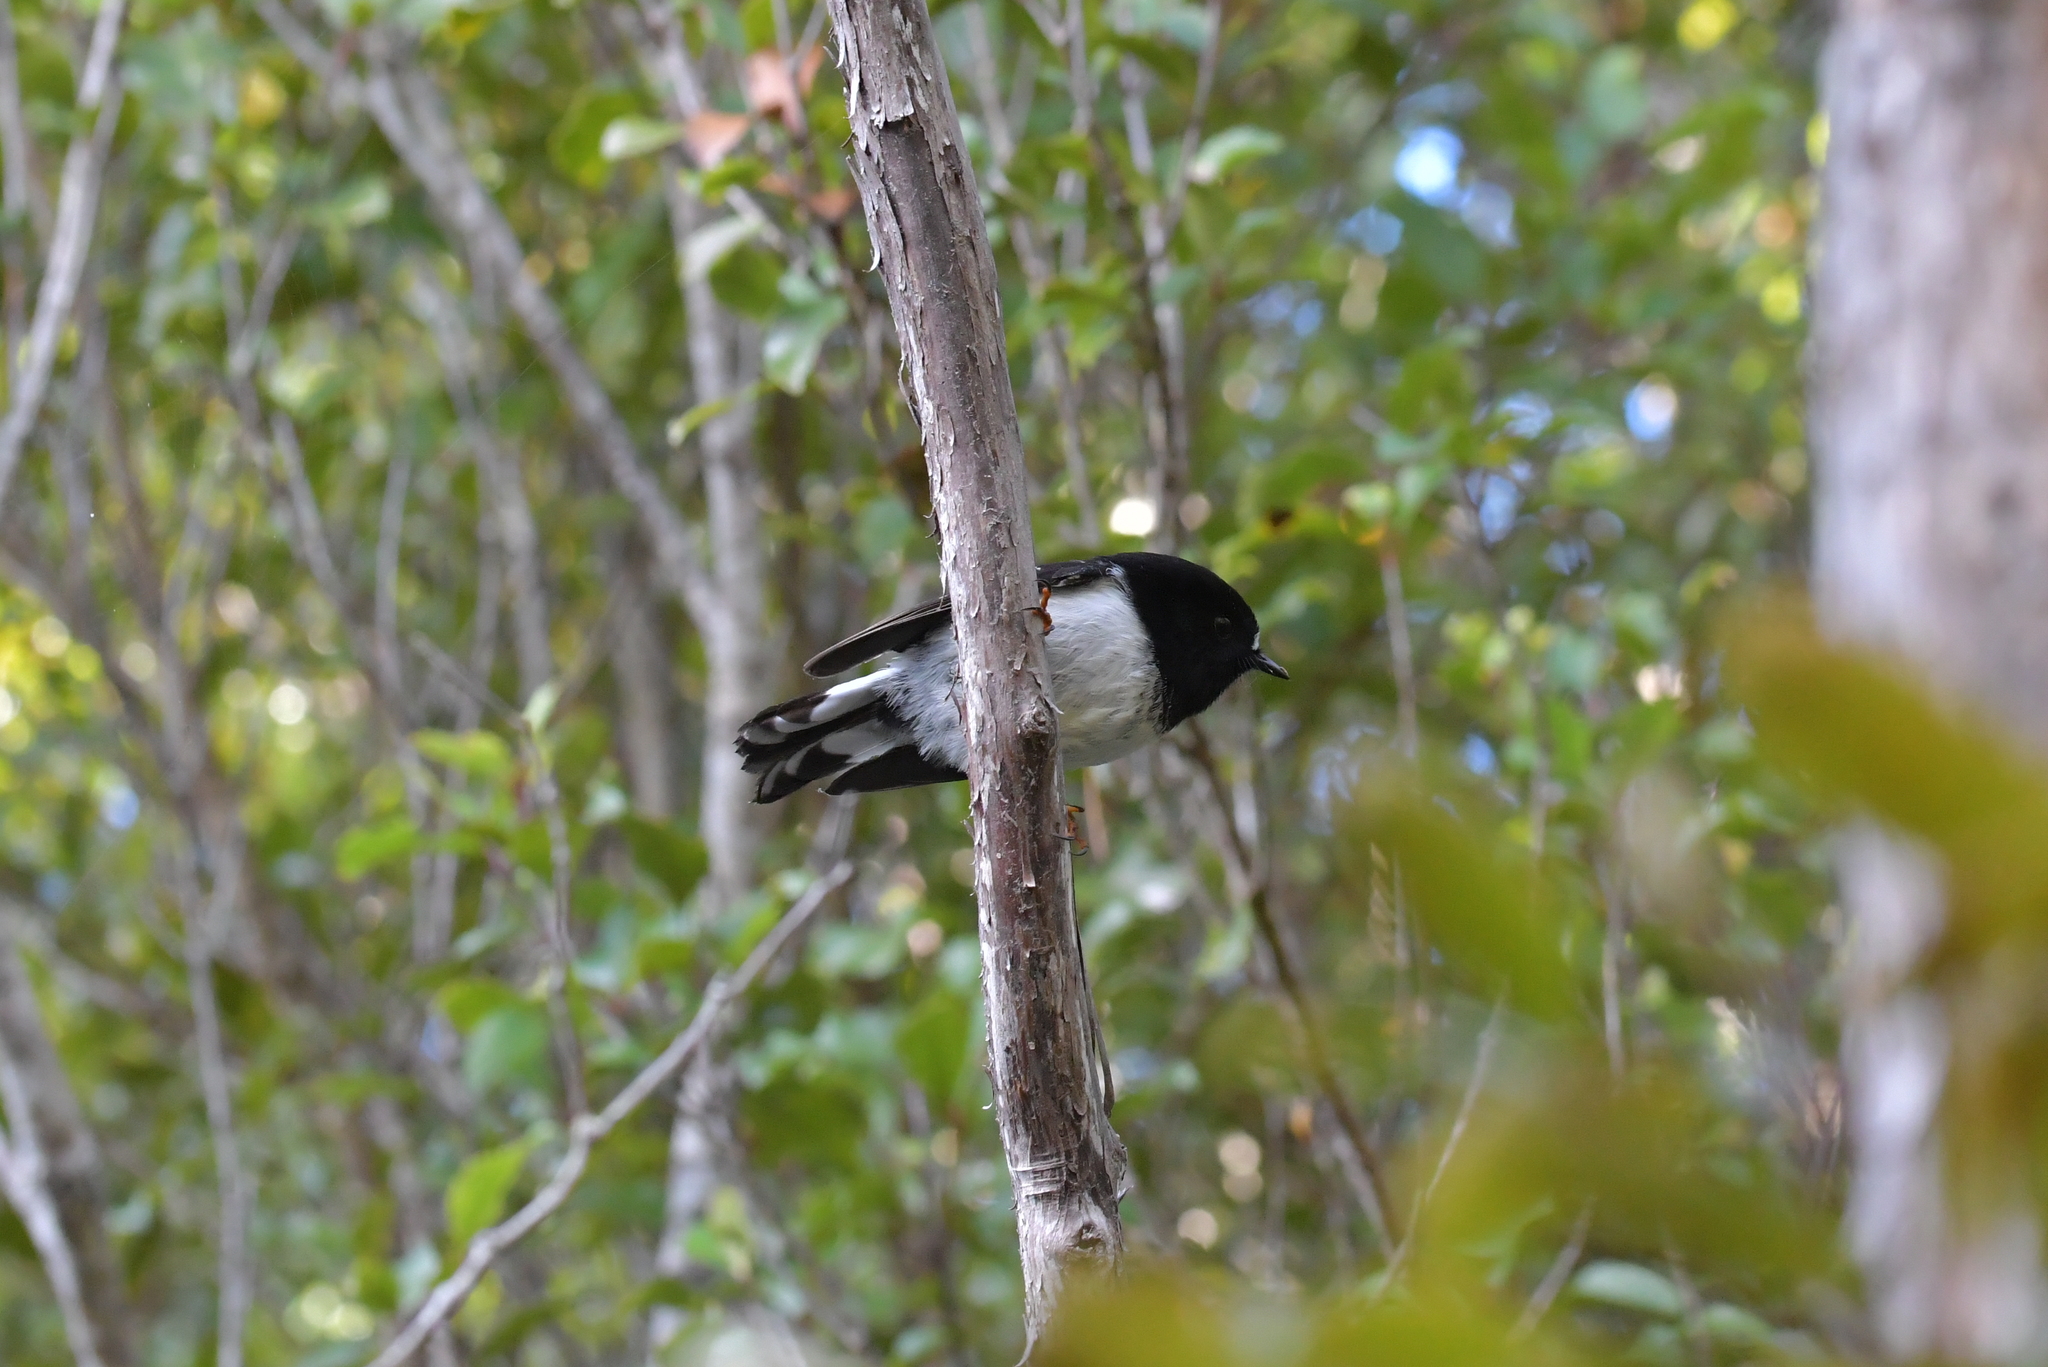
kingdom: Animalia
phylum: Chordata
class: Aves
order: Passeriformes
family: Petroicidae
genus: Petroica
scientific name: Petroica macrocephala
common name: Tomtit
